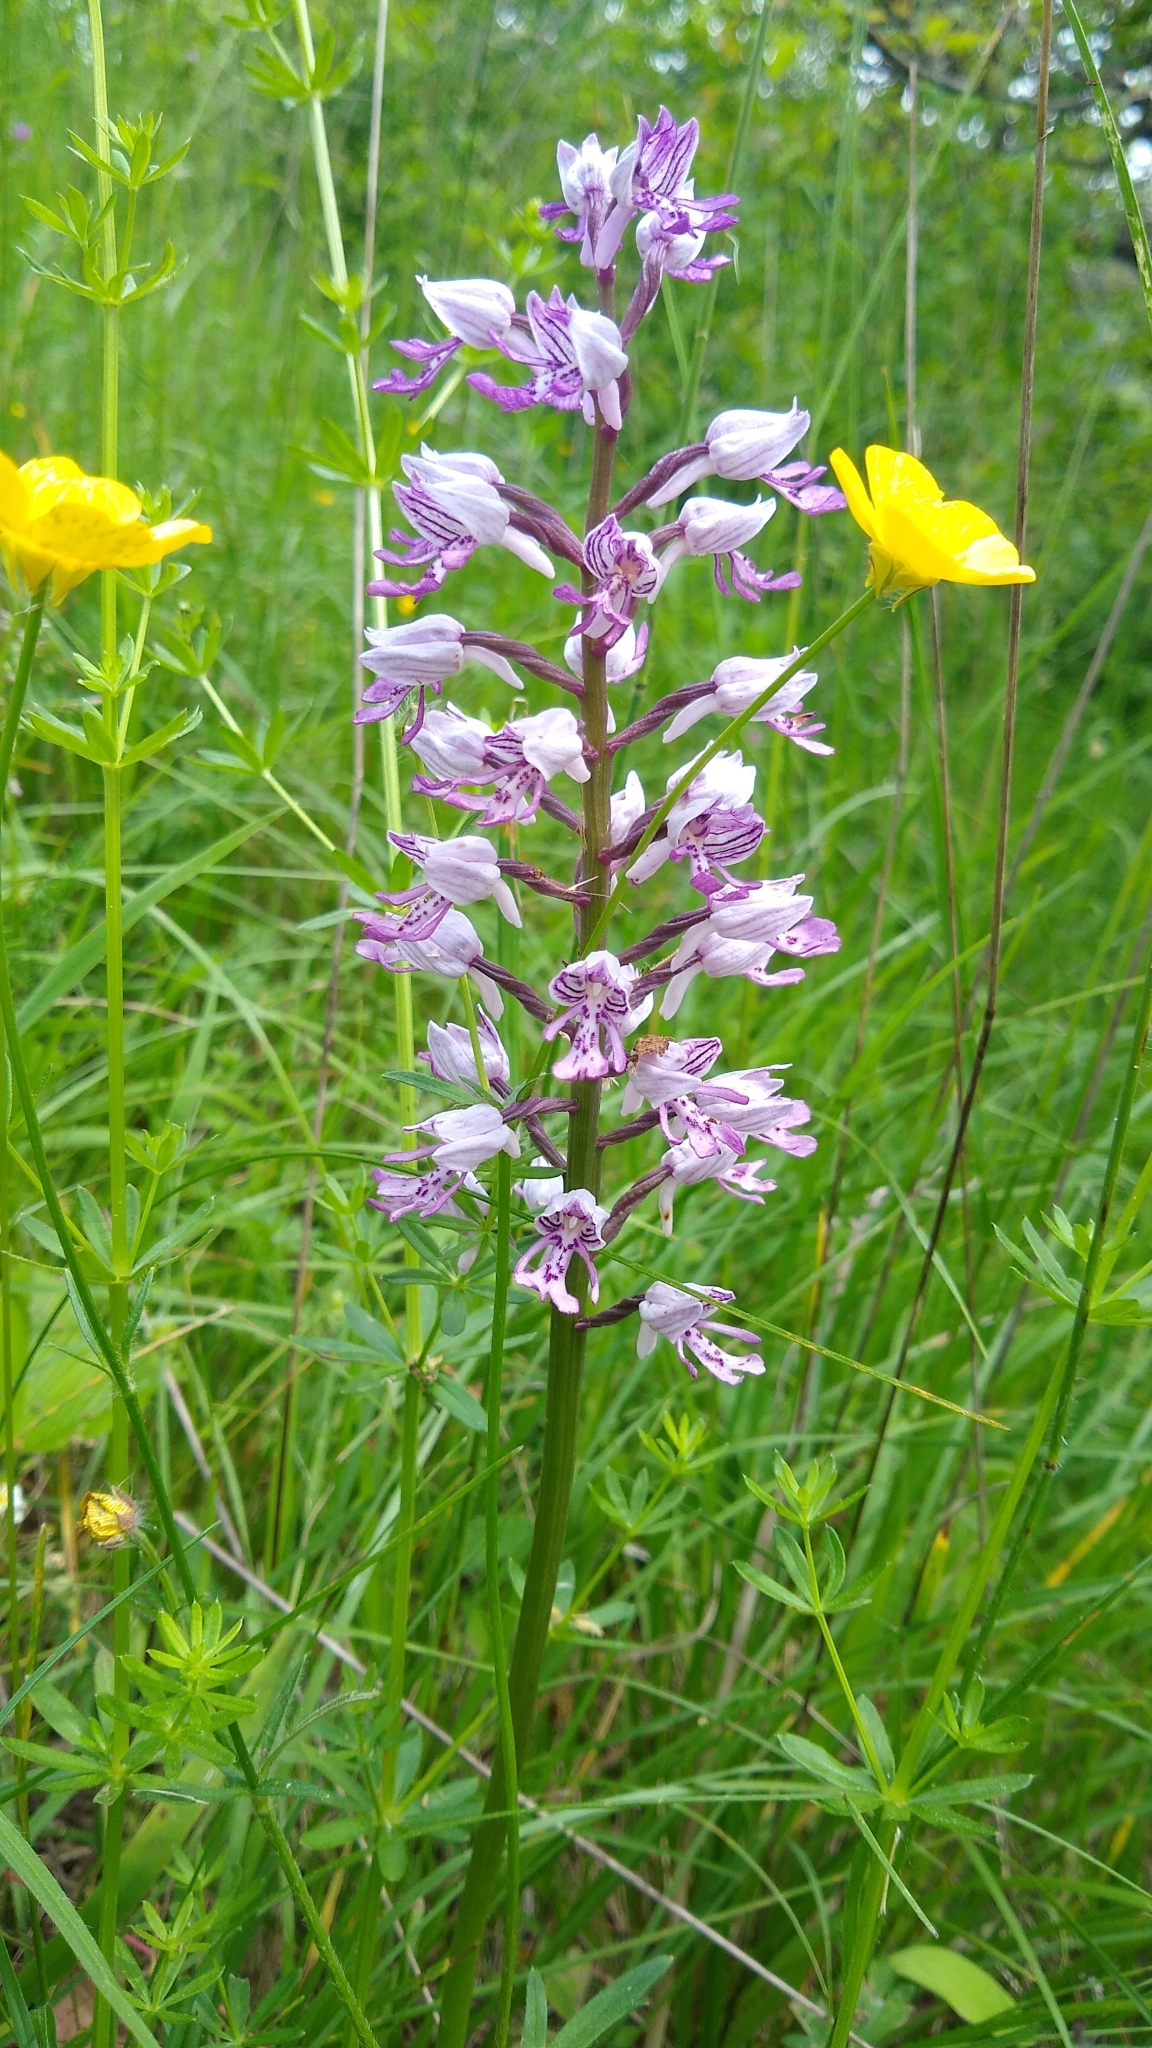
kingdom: Plantae
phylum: Tracheophyta
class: Liliopsida
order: Asparagales
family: Orchidaceae
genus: Orchis
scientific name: Orchis militaris
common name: Military orchid
